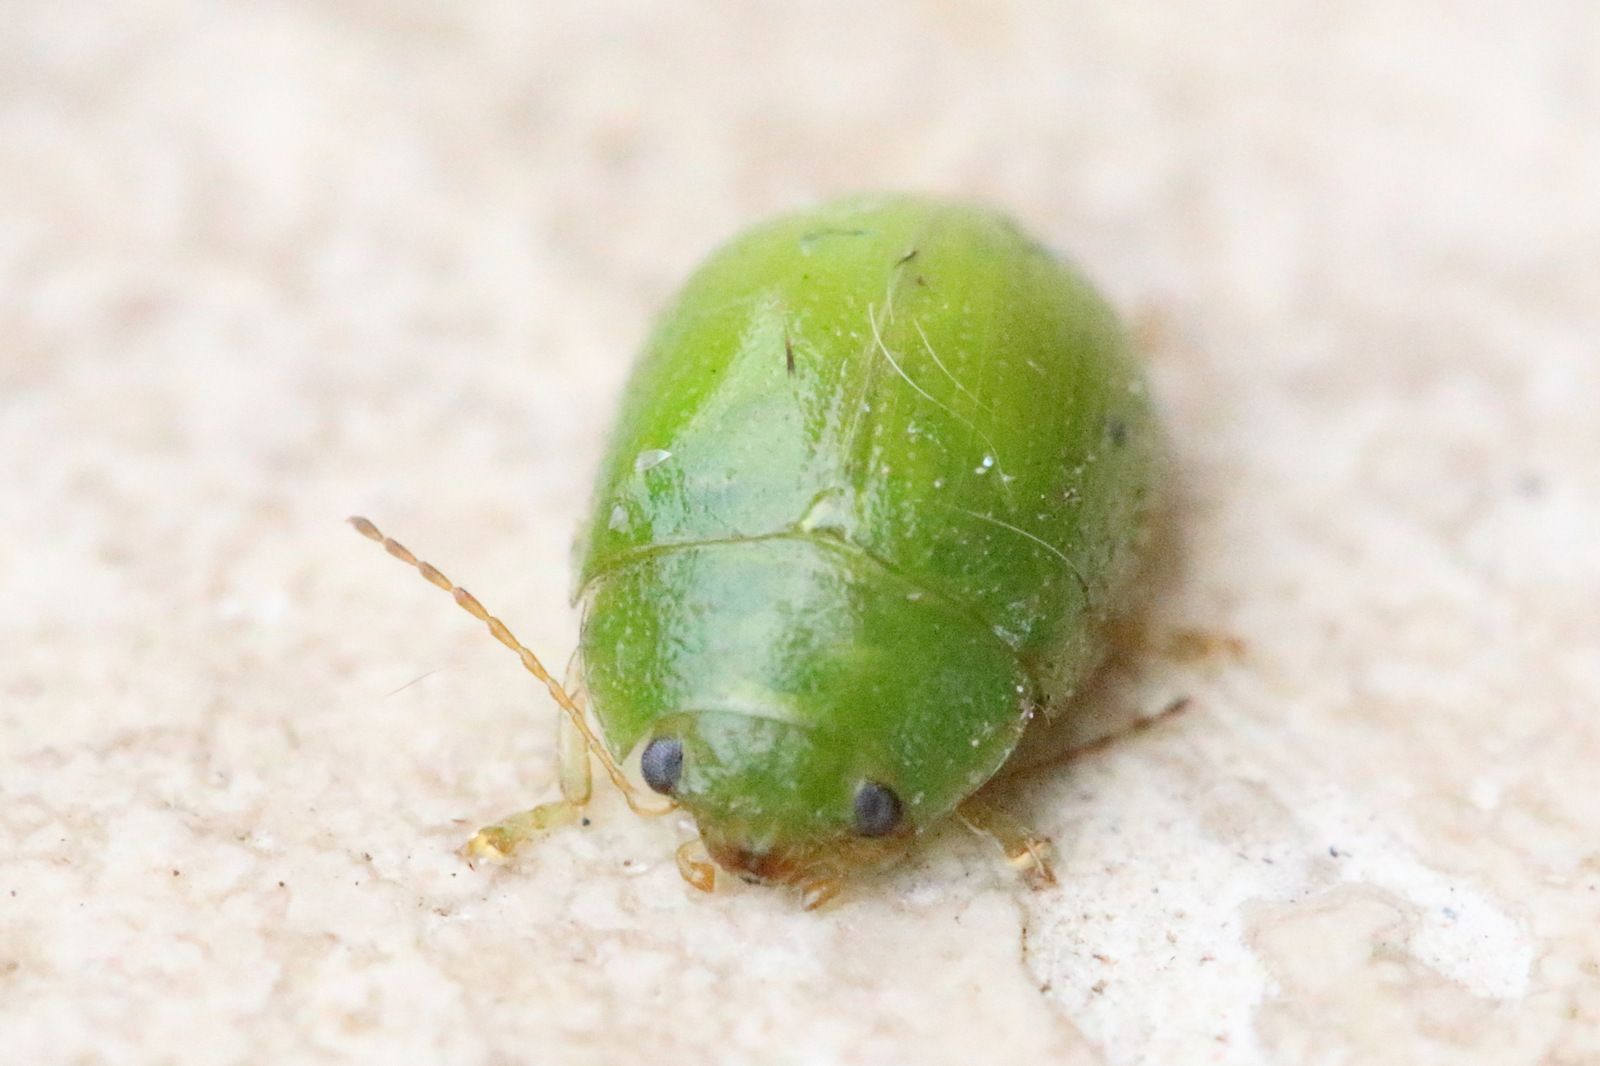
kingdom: Animalia
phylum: Arthropoda
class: Insecta
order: Coleoptera
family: Chrysomelidae
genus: Paropsides
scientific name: Paropsides
